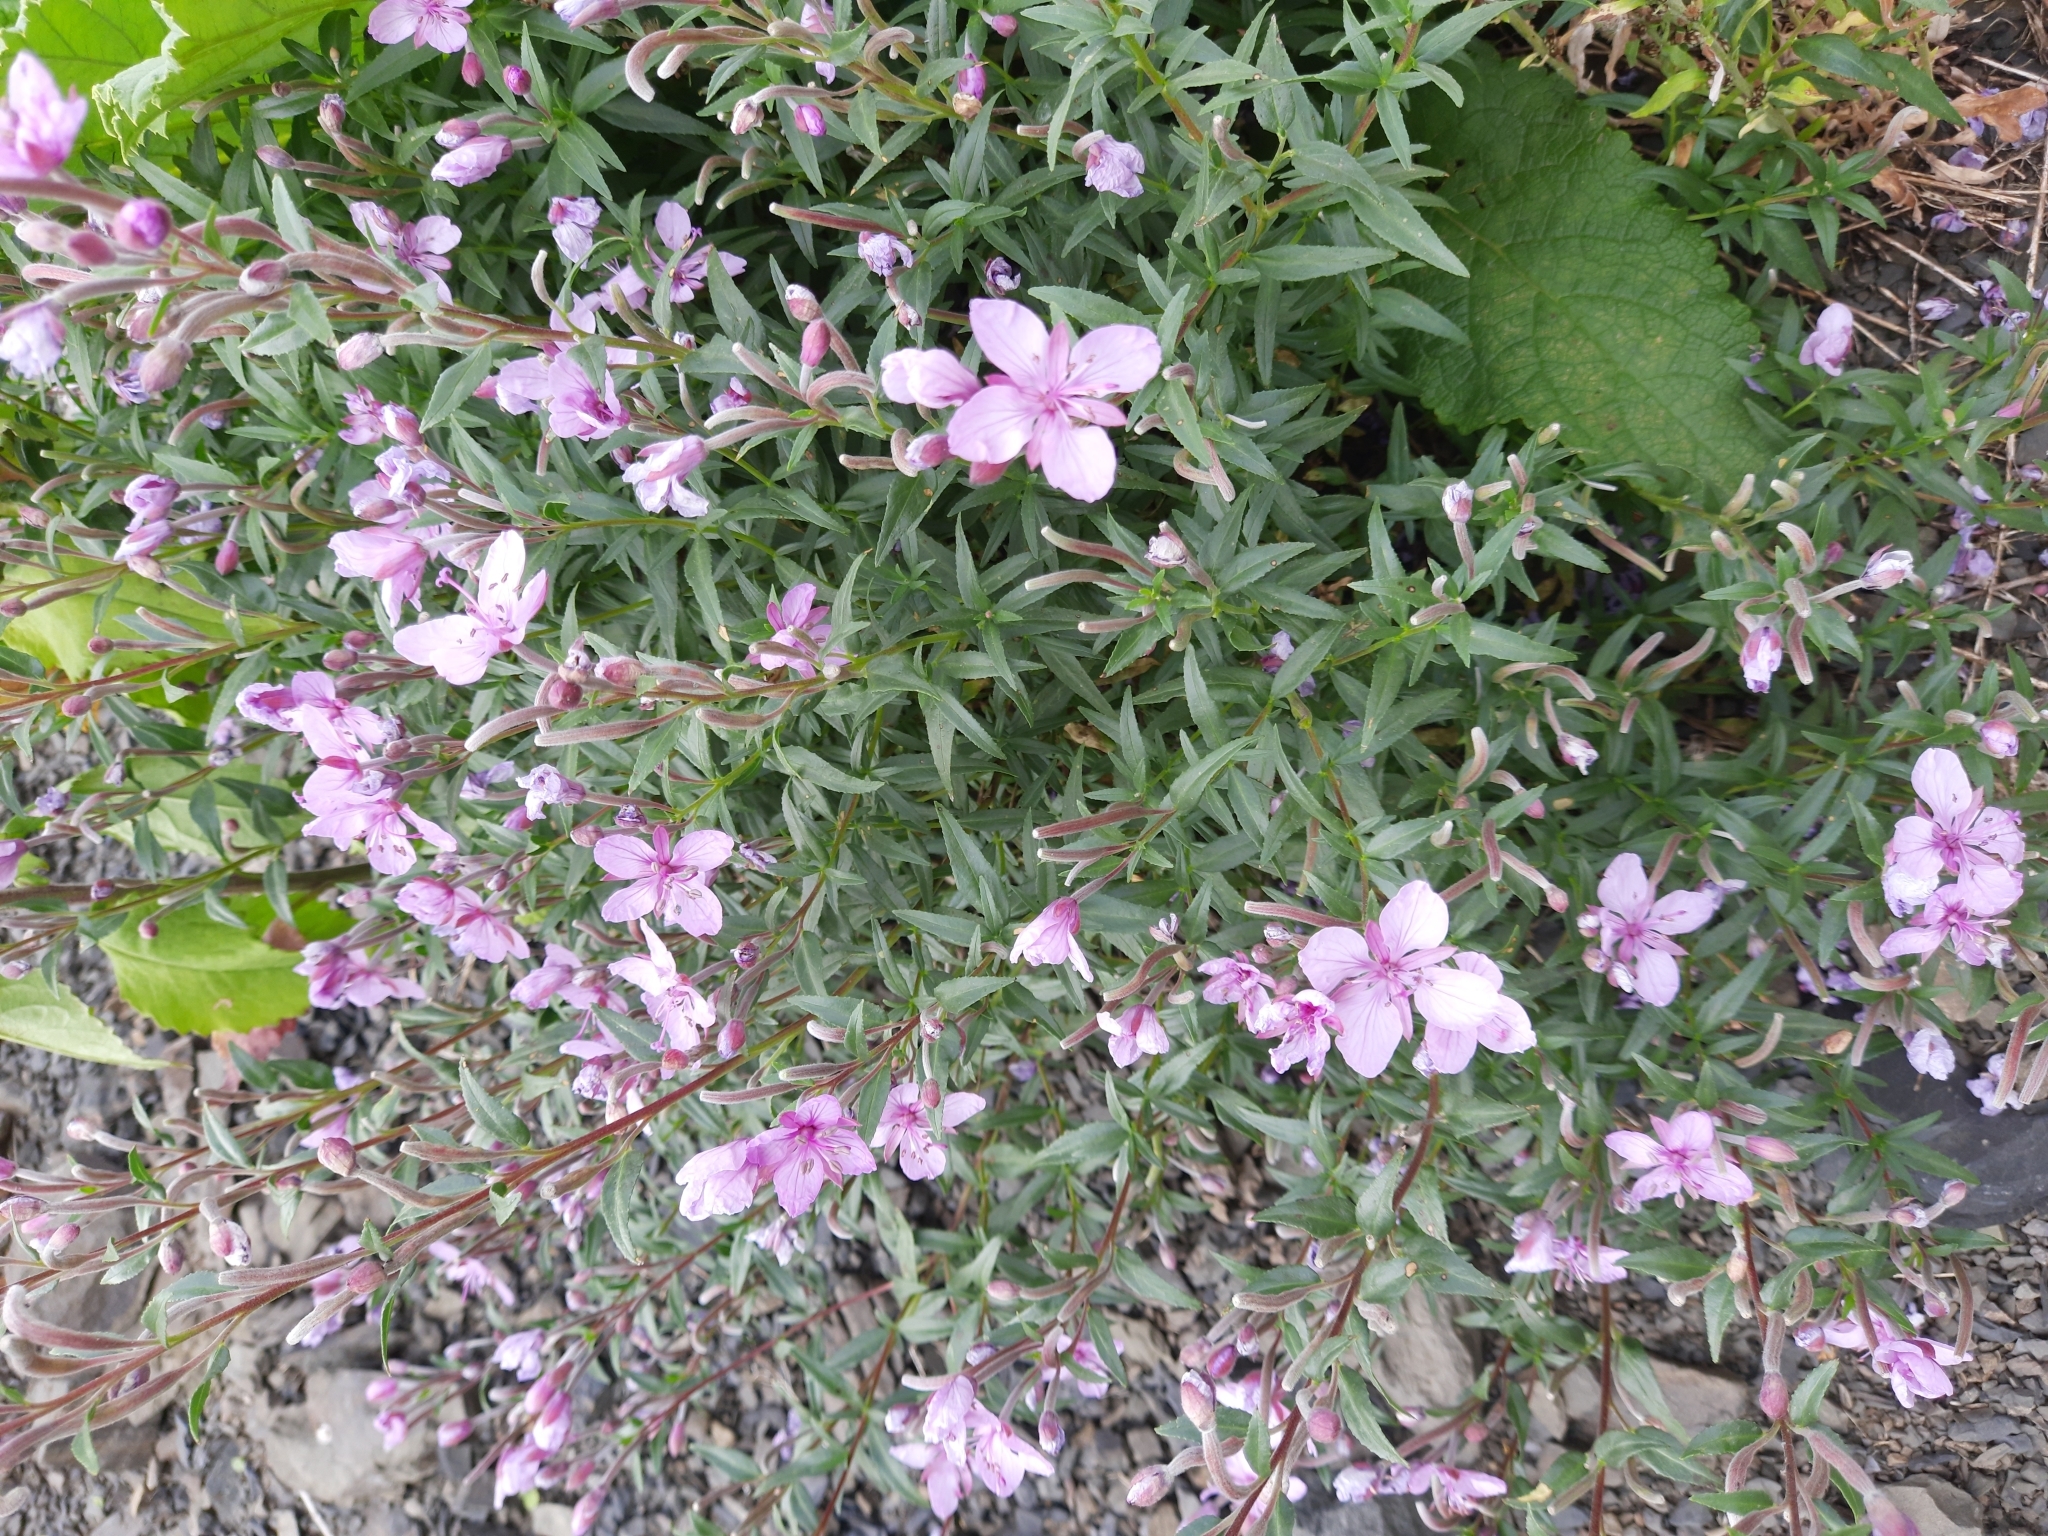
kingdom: Plantae
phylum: Tracheophyta
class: Magnoliopsida
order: Myrtales
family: Onagraceae
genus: Chamaenerion
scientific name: Chamaenerion colchicum
